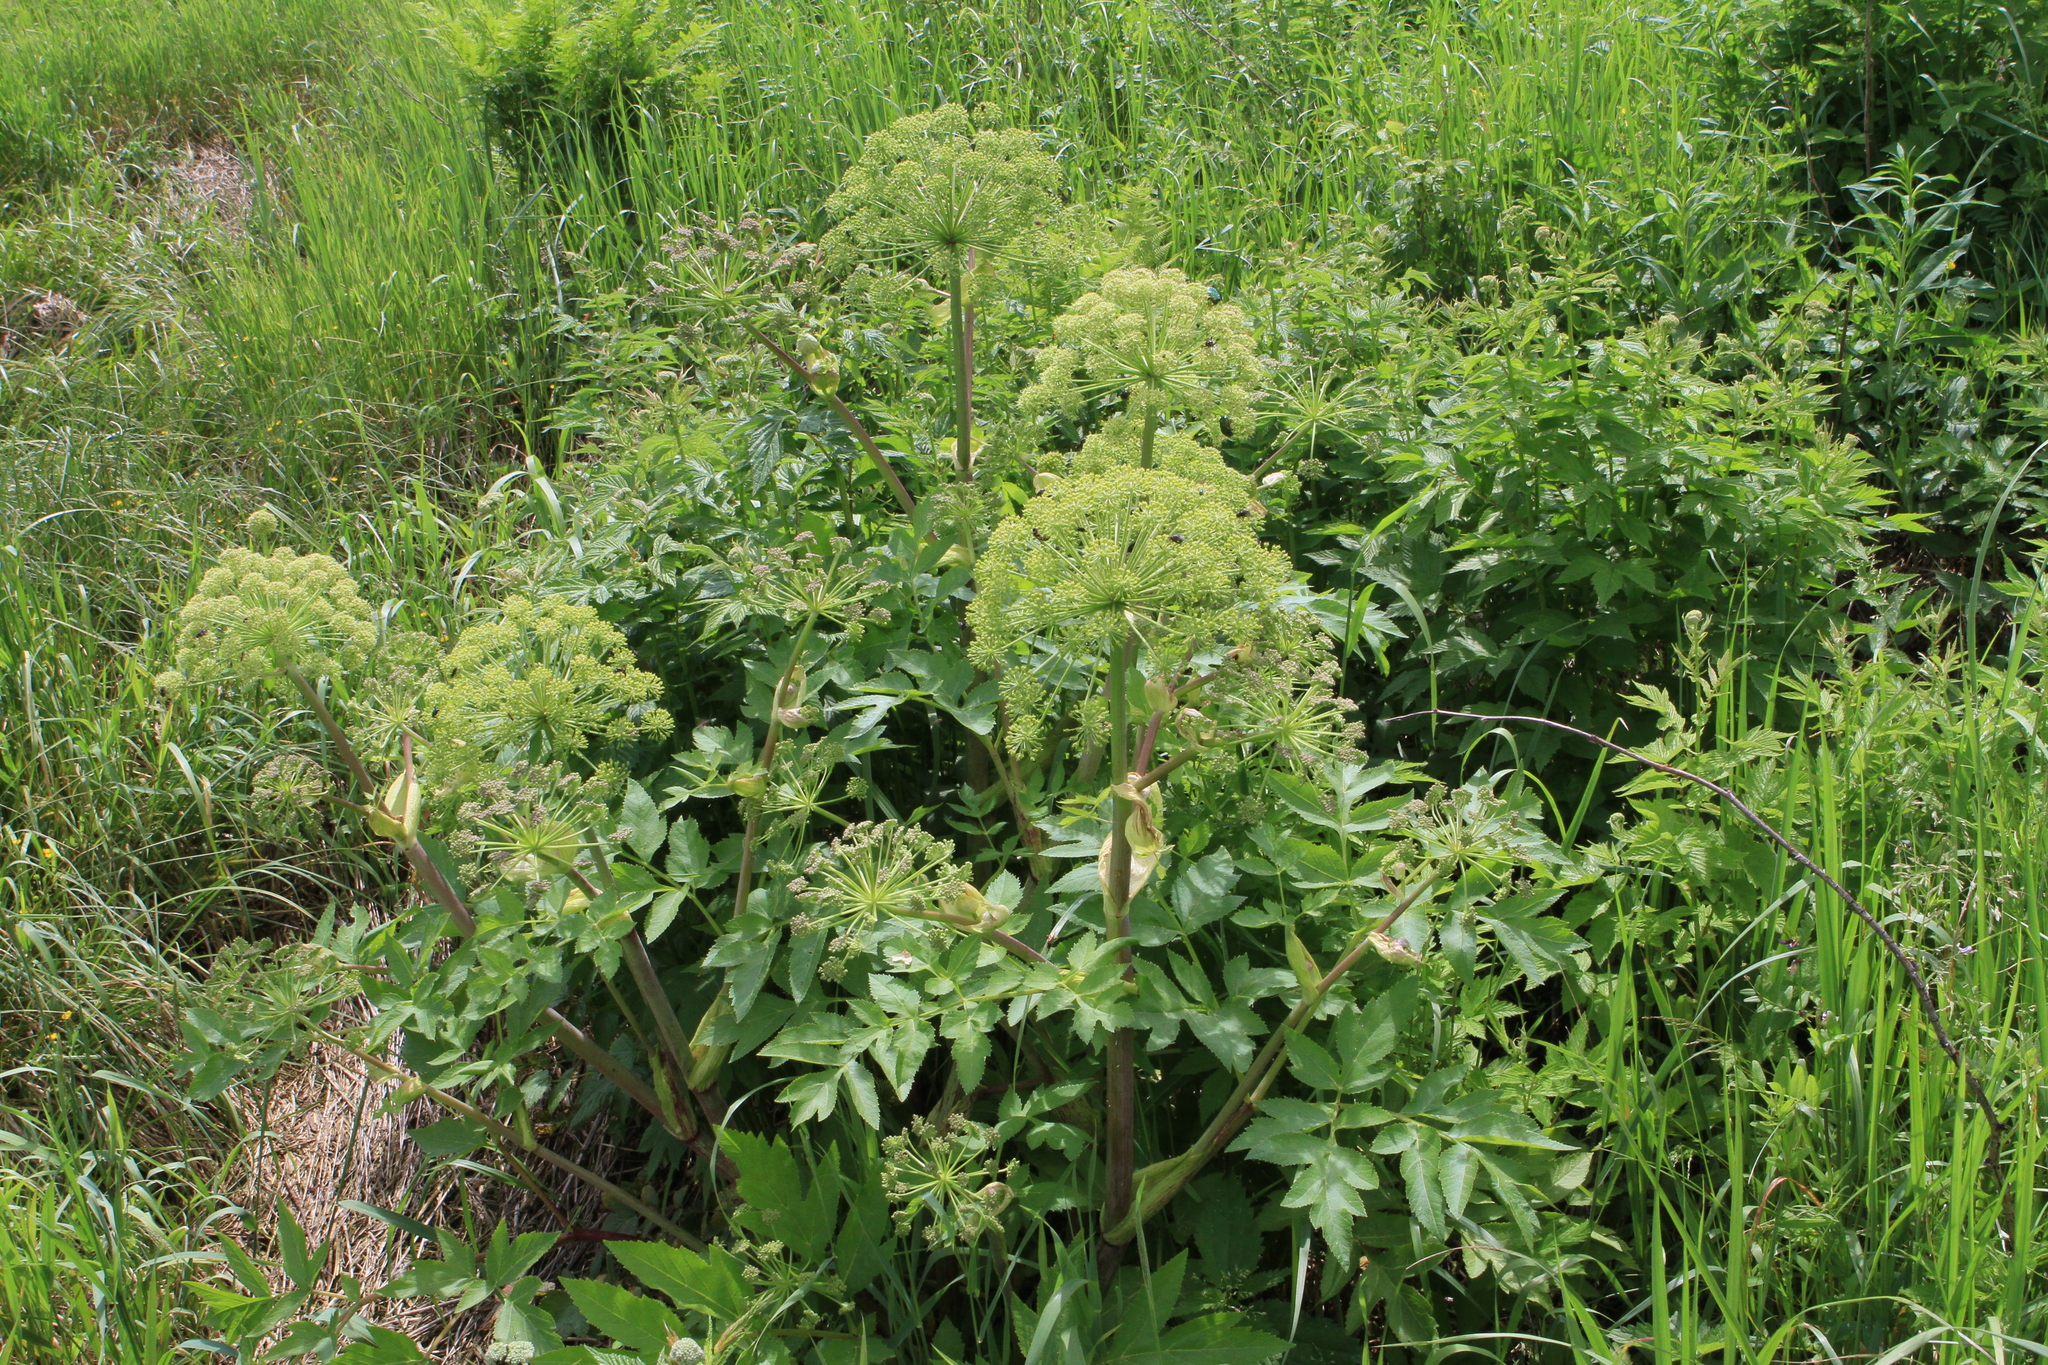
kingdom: Plantae
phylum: Tracheophyta
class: Magnoliopsida
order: Apiales
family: Apiaceae
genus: Angelica
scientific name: Angelica decurrens
